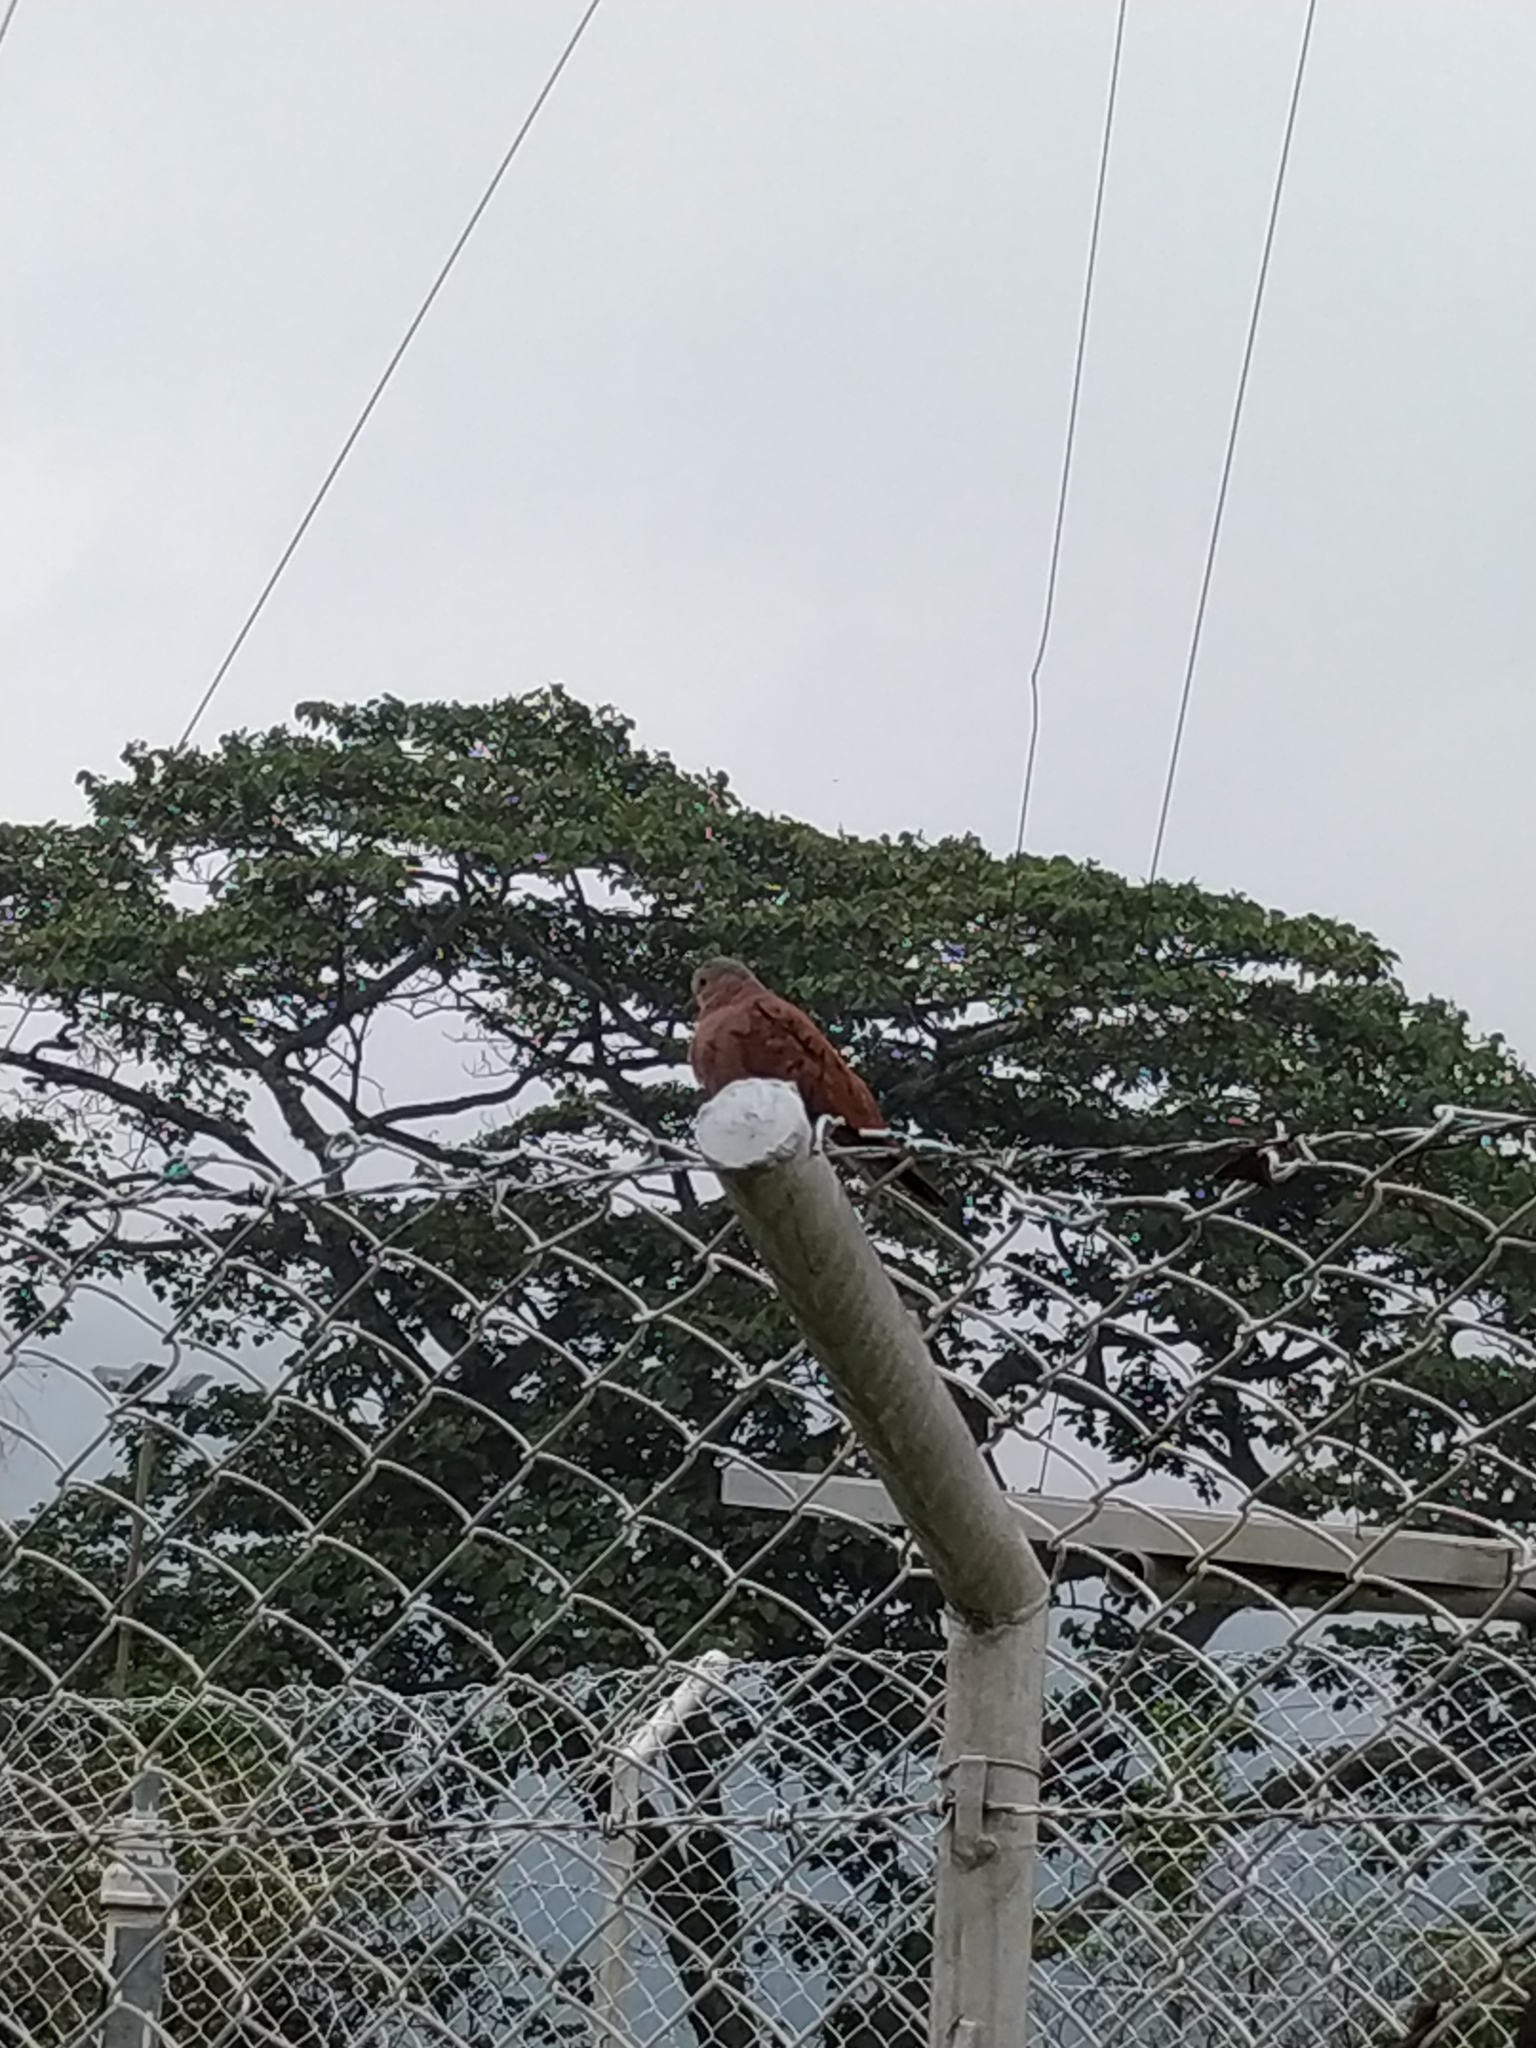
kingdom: Animalia
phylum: Chordata
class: Aves
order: Columbiformes
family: Columbidae
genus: Columbina
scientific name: Columbina talpacoti
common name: Ruddy ground dove
